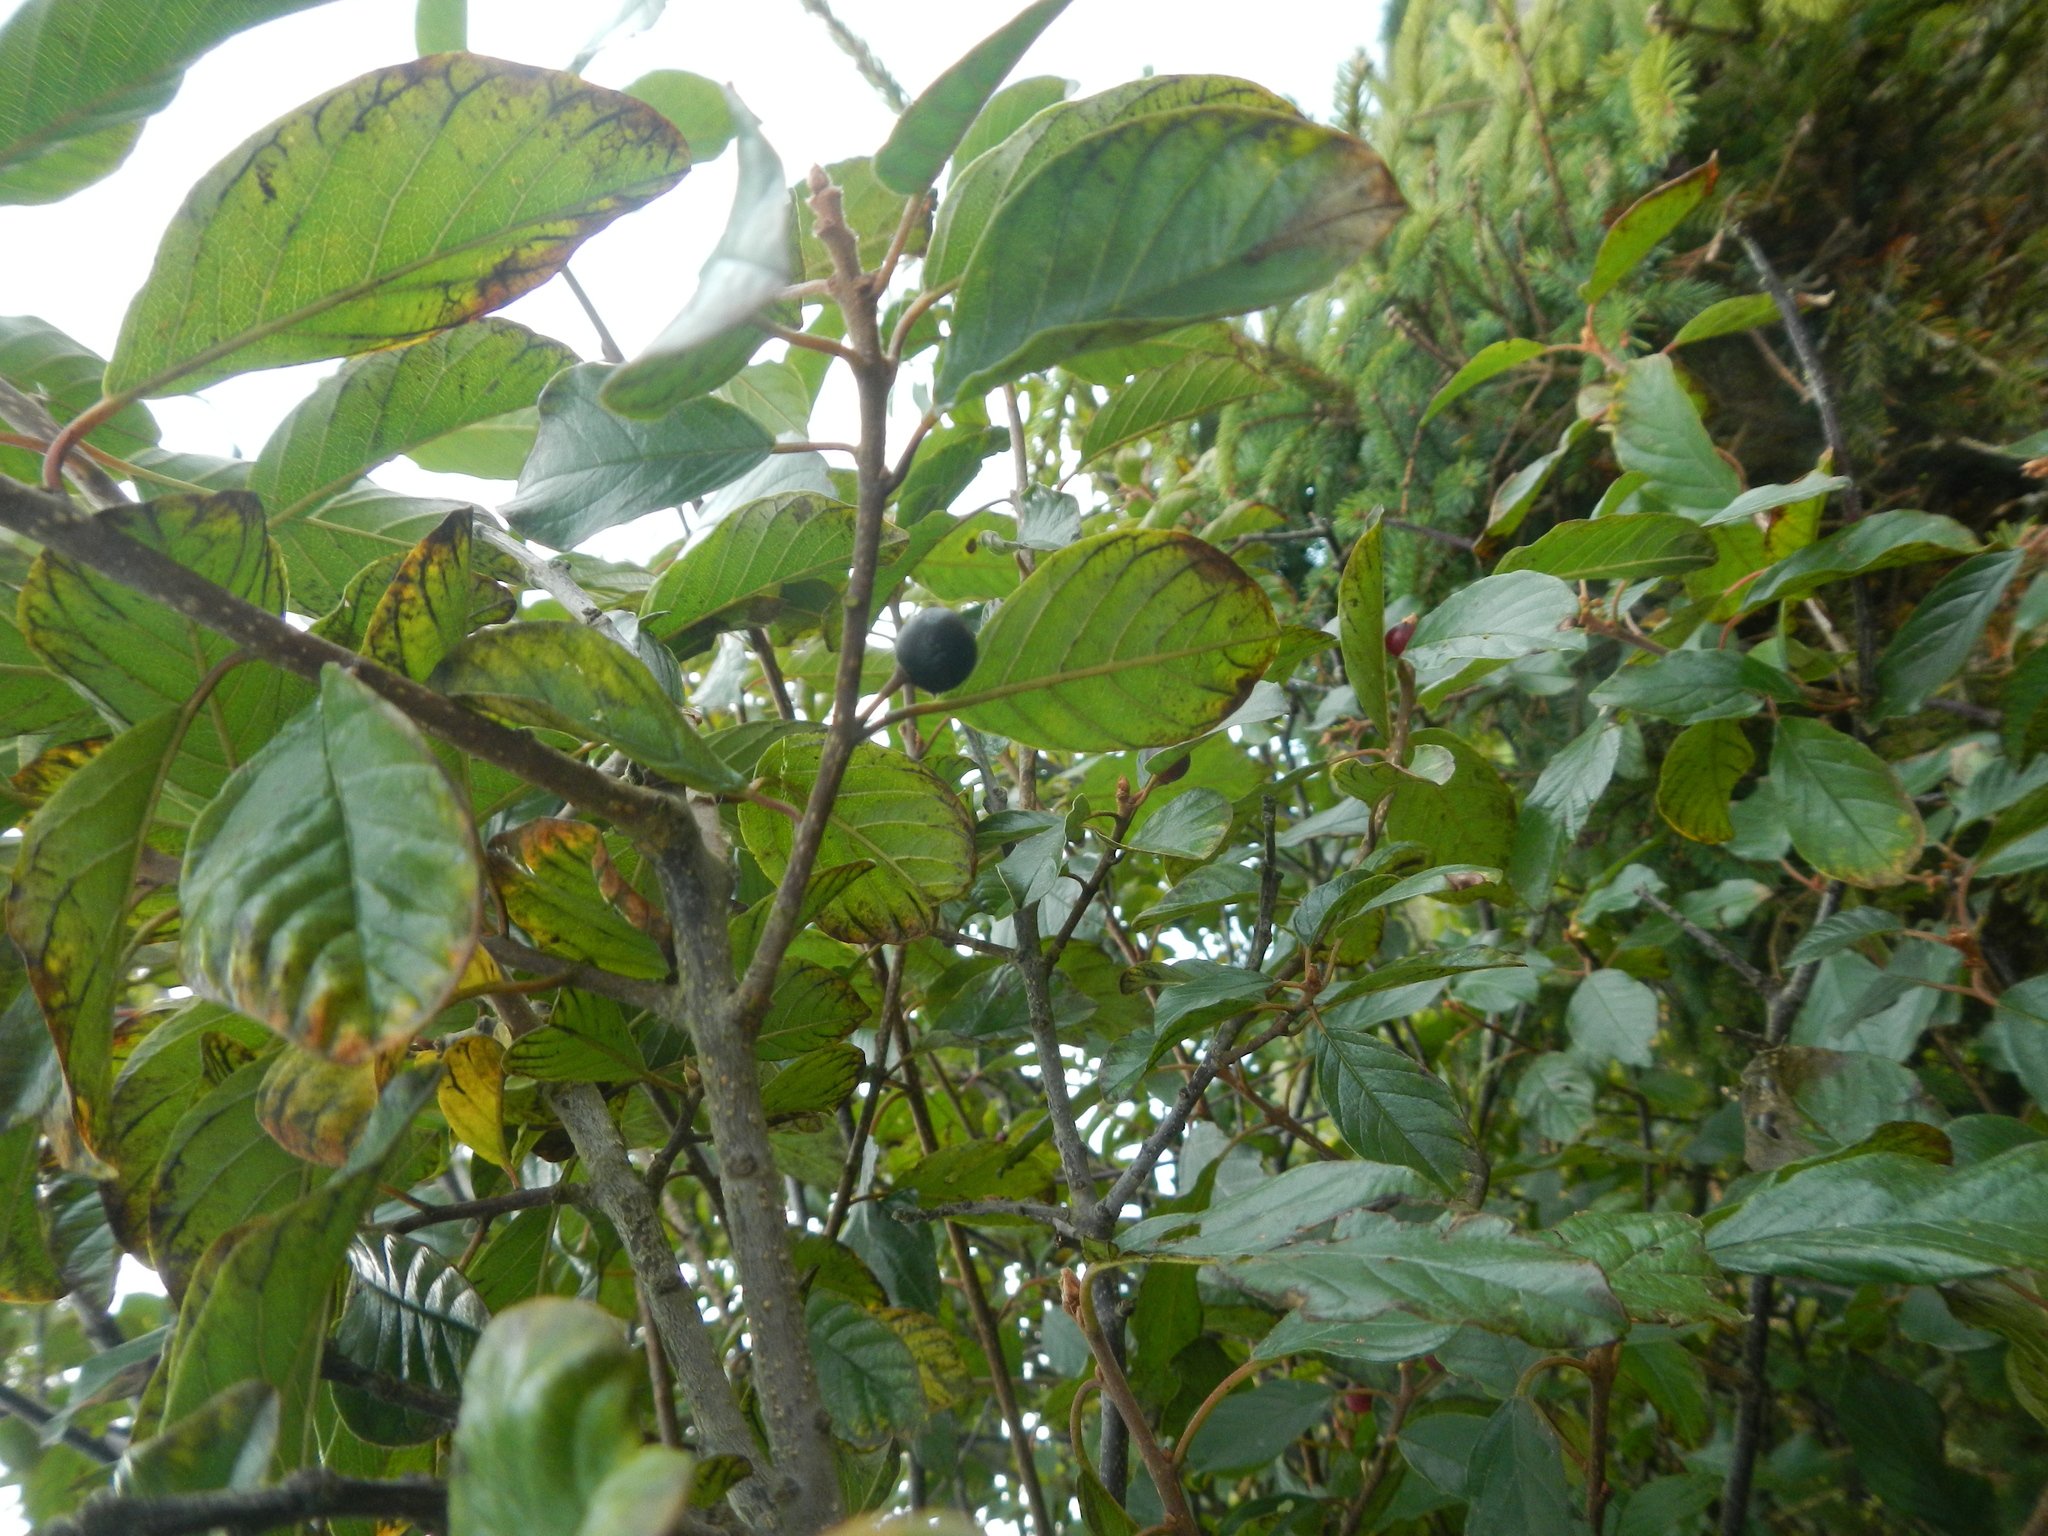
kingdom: Plantae
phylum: Tracheophyta
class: Magnoliopsida
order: Rosales
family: Rhamnaceae
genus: Frangula
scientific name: Frangula alnus
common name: Alder buckthorn
